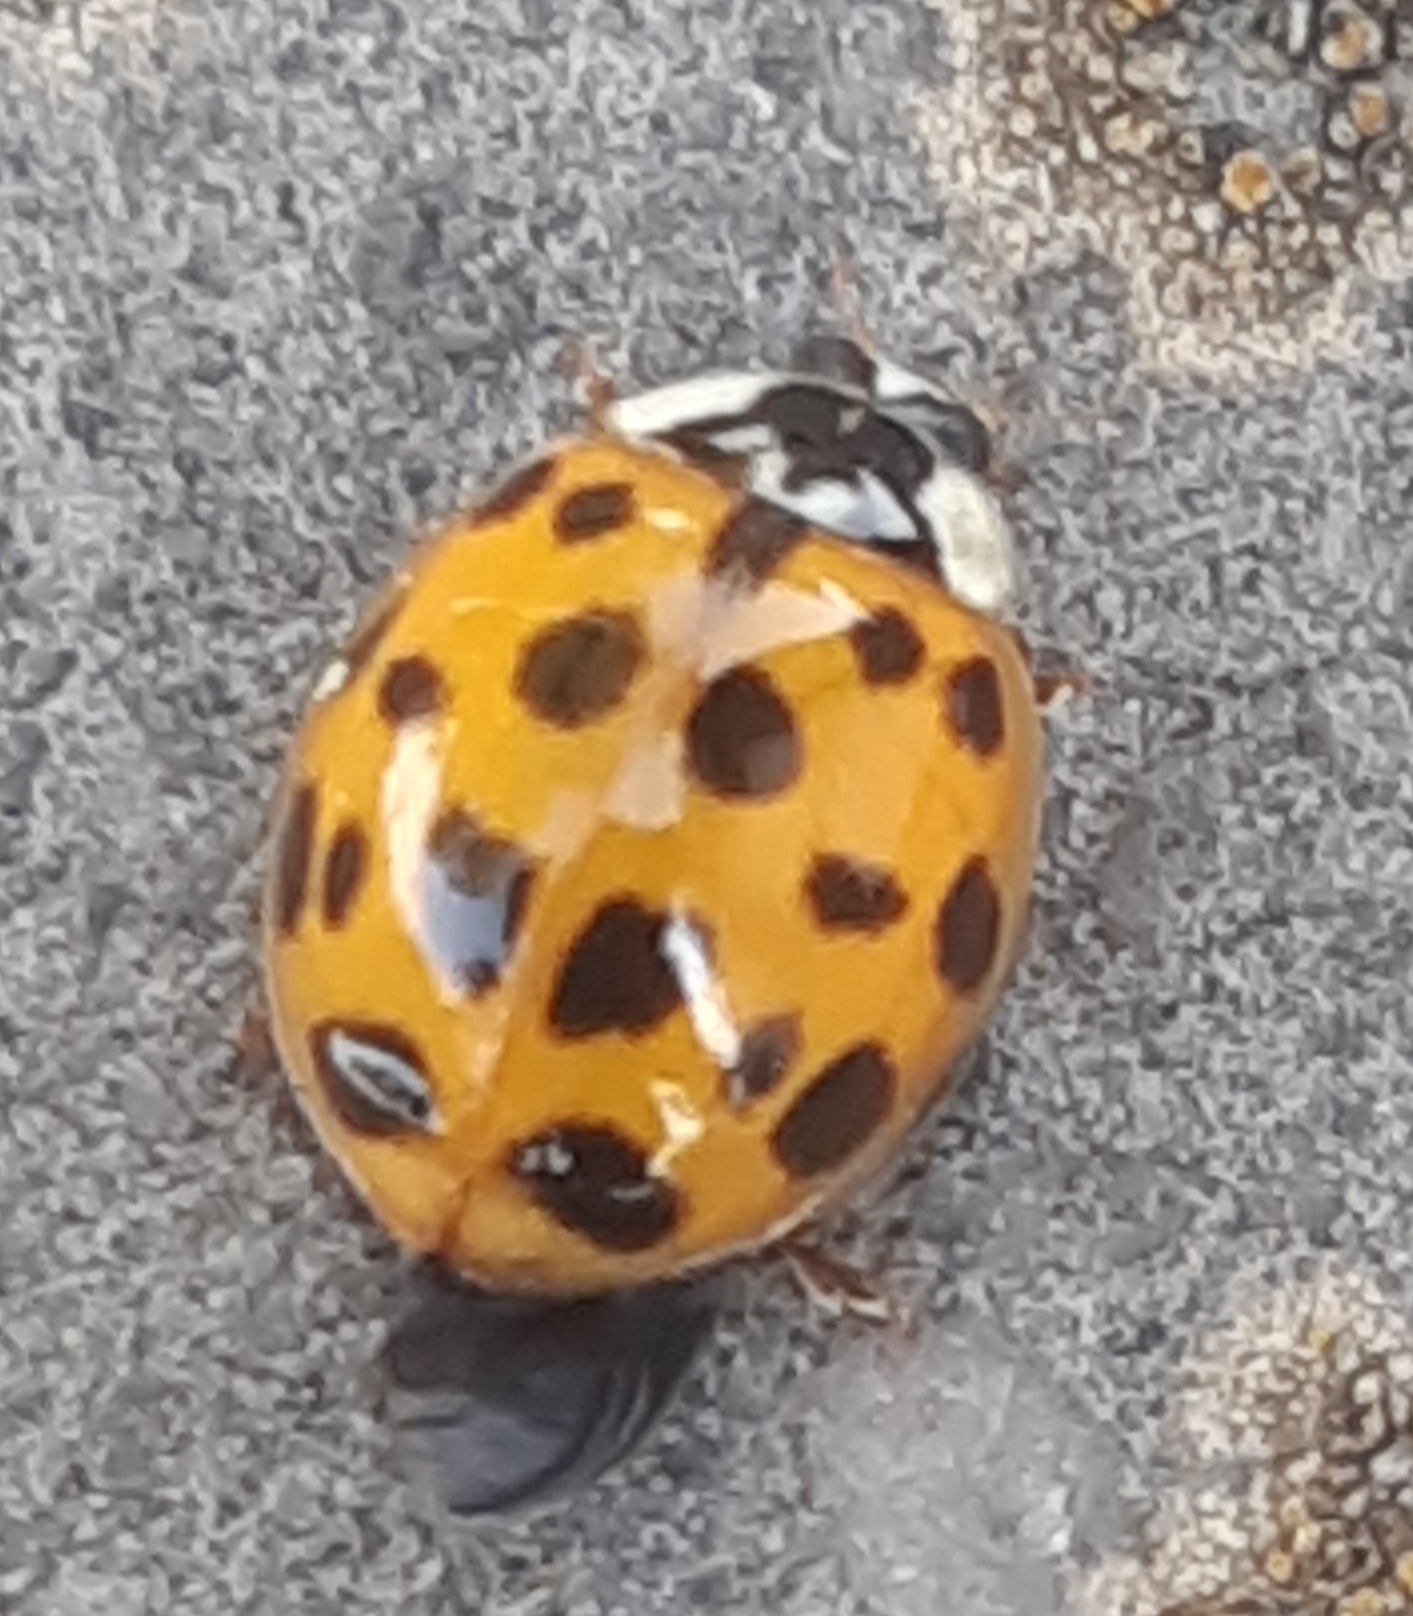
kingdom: Animalia
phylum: Arthropoda
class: Insecta
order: Coleoptera
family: Coccinellidae
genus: Harmonia
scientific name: Harmonia axyridis
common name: Harlequin ladybird
